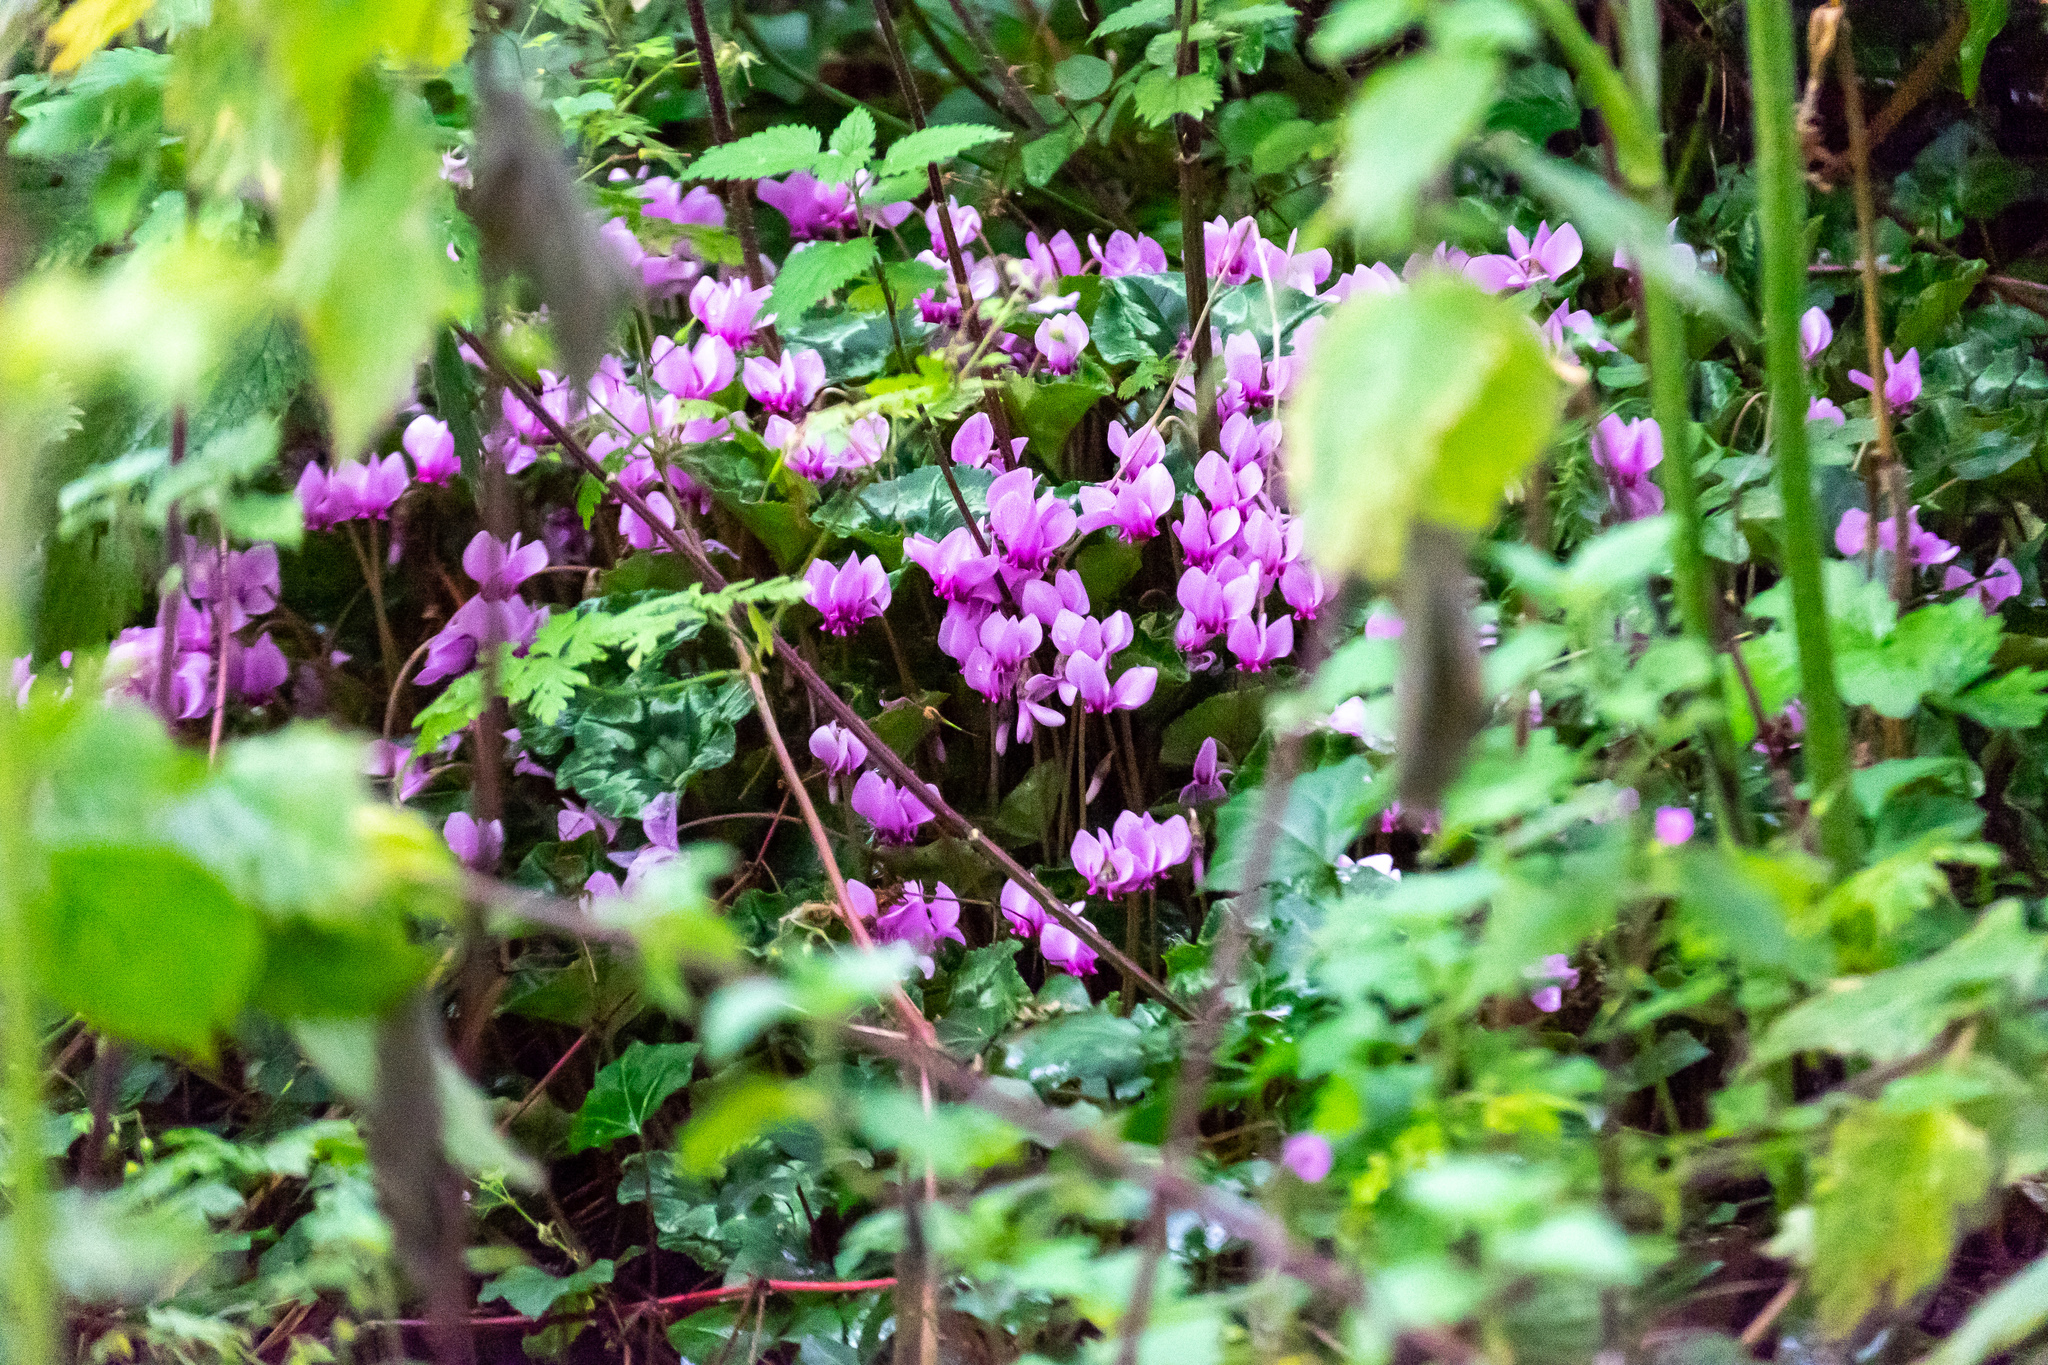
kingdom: Plantae
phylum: Tracheophyta
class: Magnoliopsida
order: Ericales
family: Primulaceae
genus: Cyclamen
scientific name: Cyclamen hederifolium
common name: Sowbread
